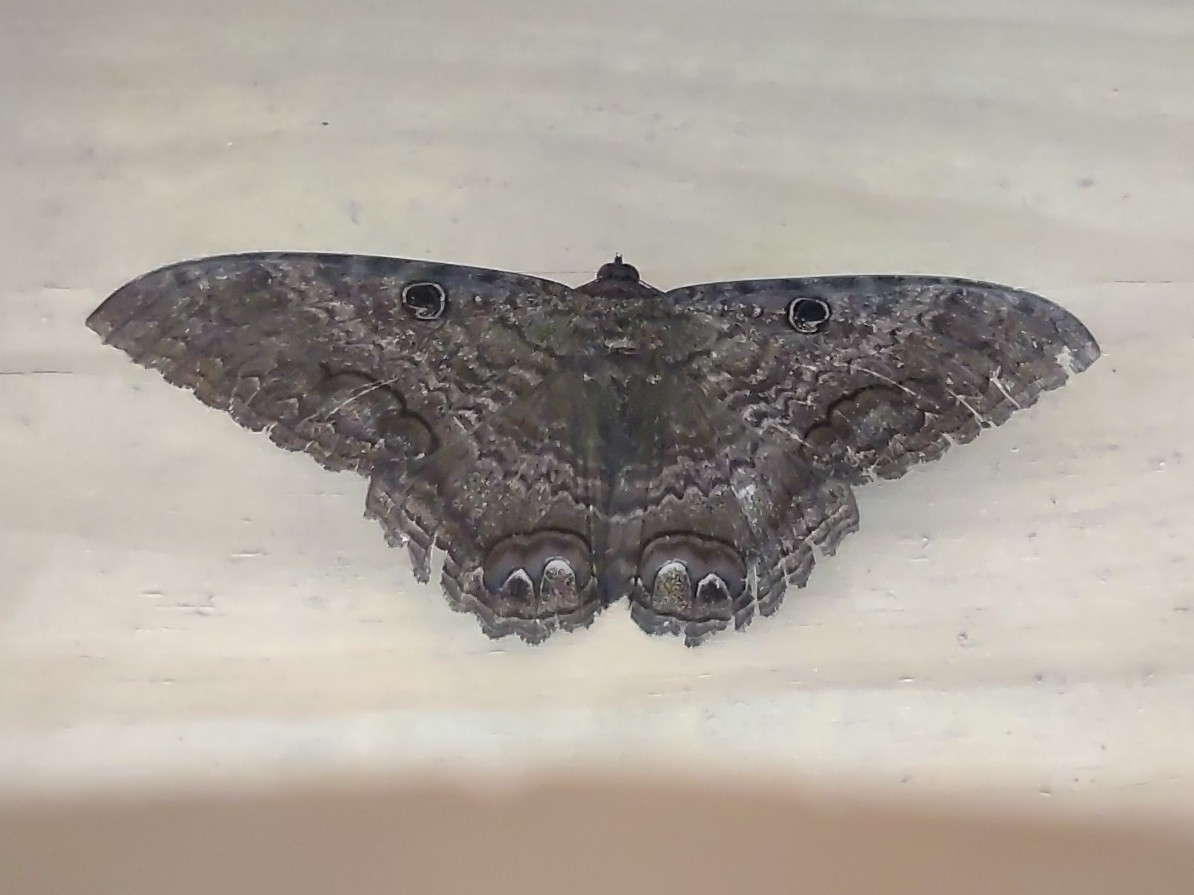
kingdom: Animalia
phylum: Arthropoda
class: Insecta
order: Lepidoptera
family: Erebidae
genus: Ascalapha
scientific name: Ascalapha odorata
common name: Black witch
